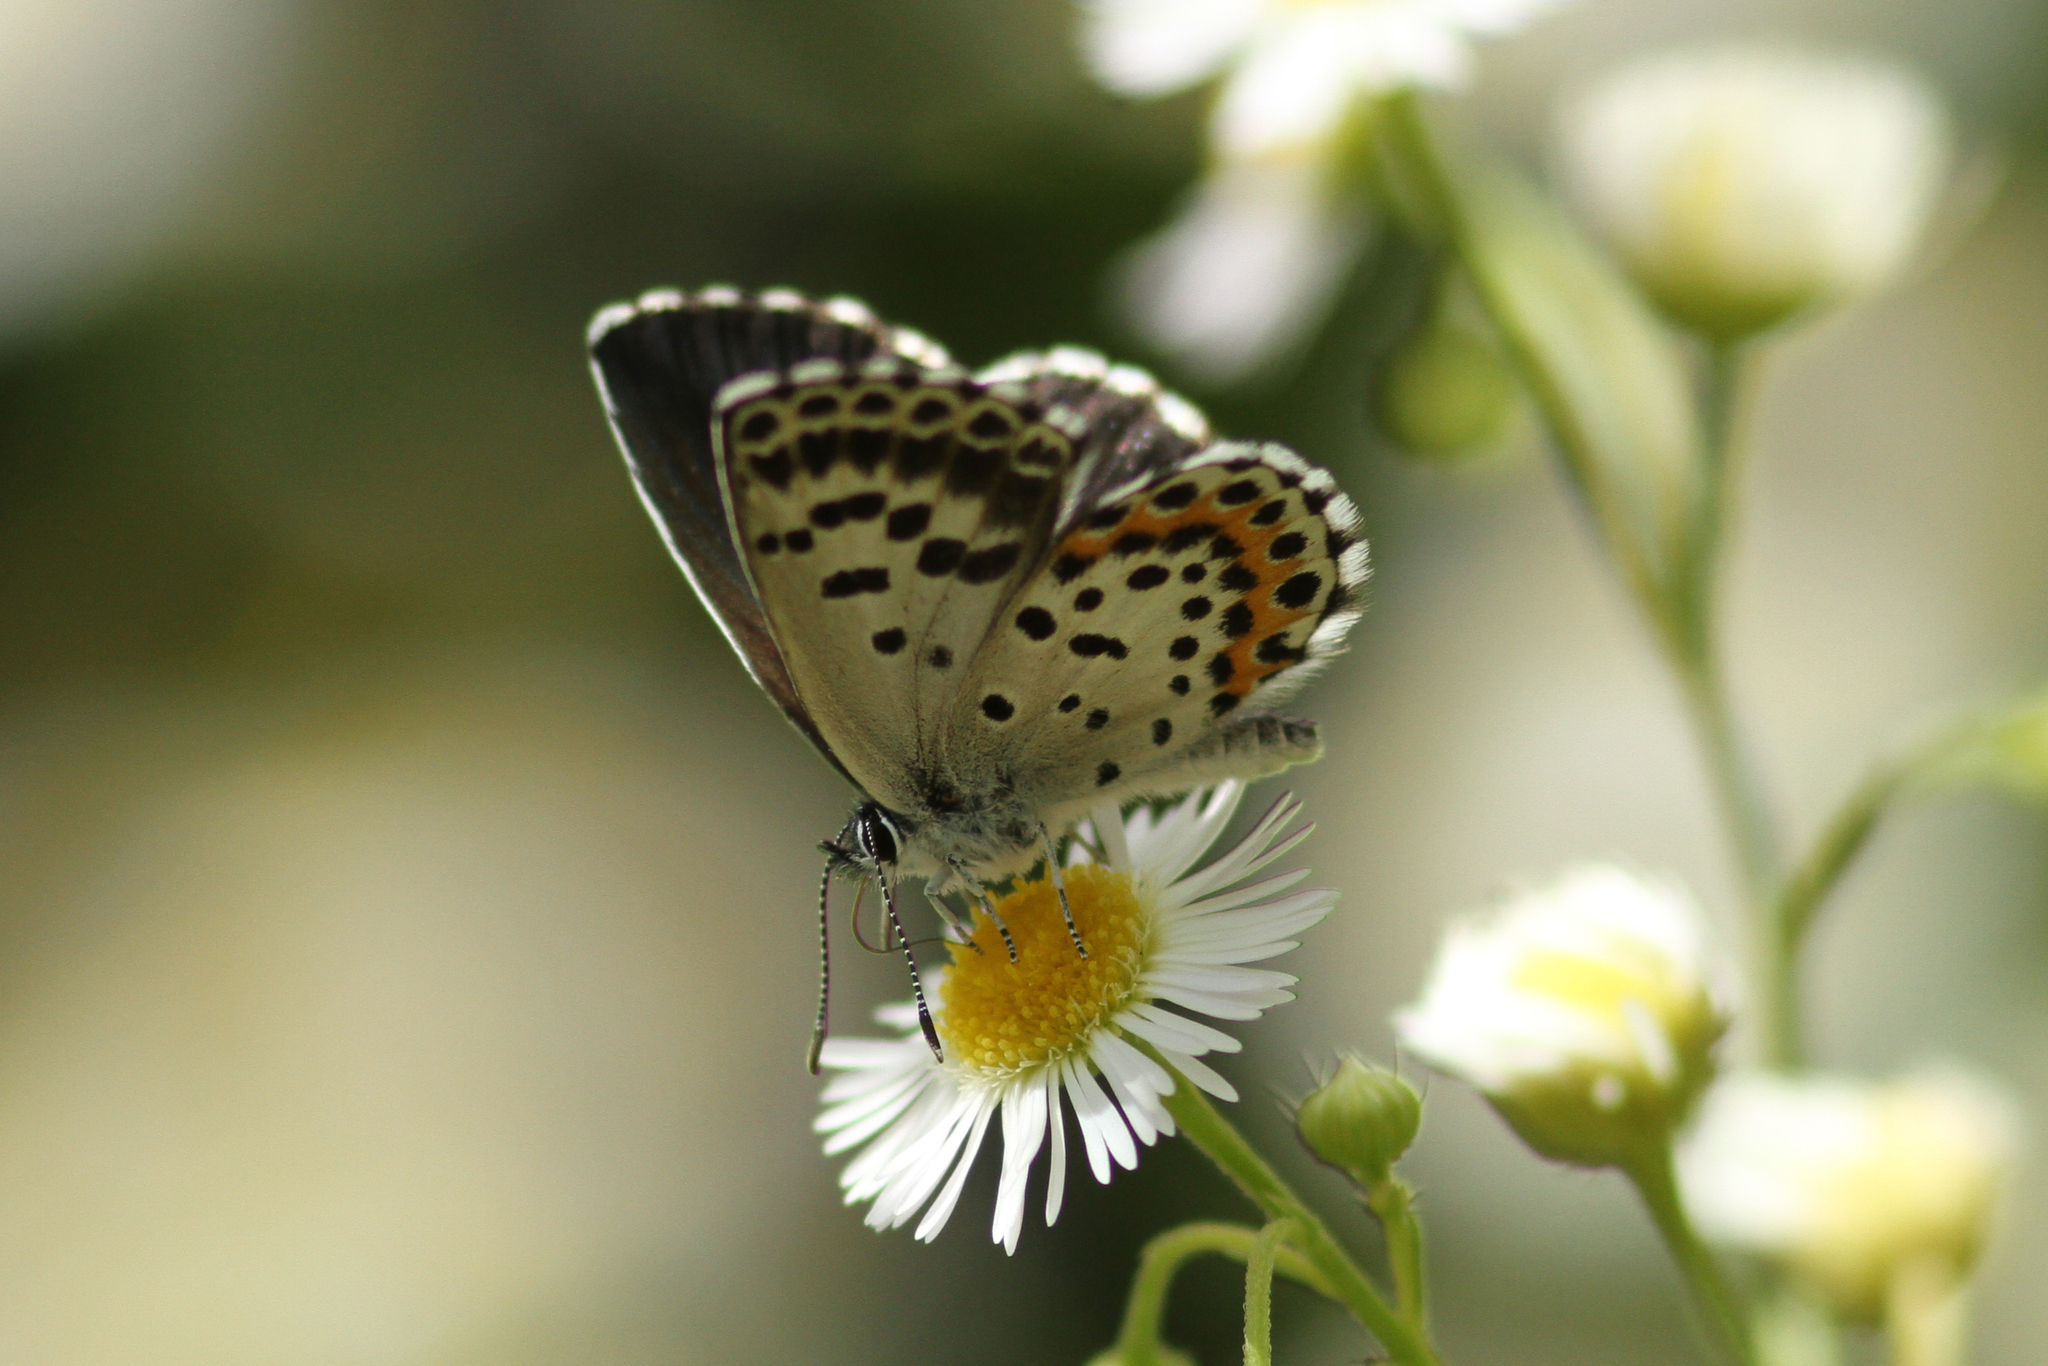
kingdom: Animalia
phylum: Arthropoda
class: Insecta
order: Lepidoptera
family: Lycaenidae
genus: Scolitantides
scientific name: Scolitantides orion
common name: Chequered blue
